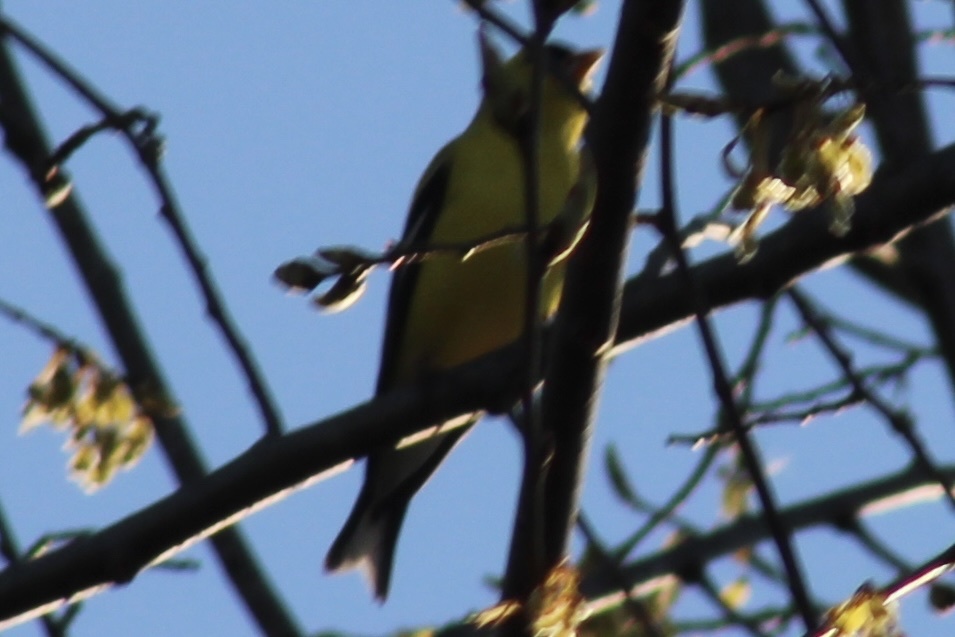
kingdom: Animalia
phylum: Chordata
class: Aves
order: Passeriformes
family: Fringillidae
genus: Spinus
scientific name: Spinus tristis
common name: American goldfinch
